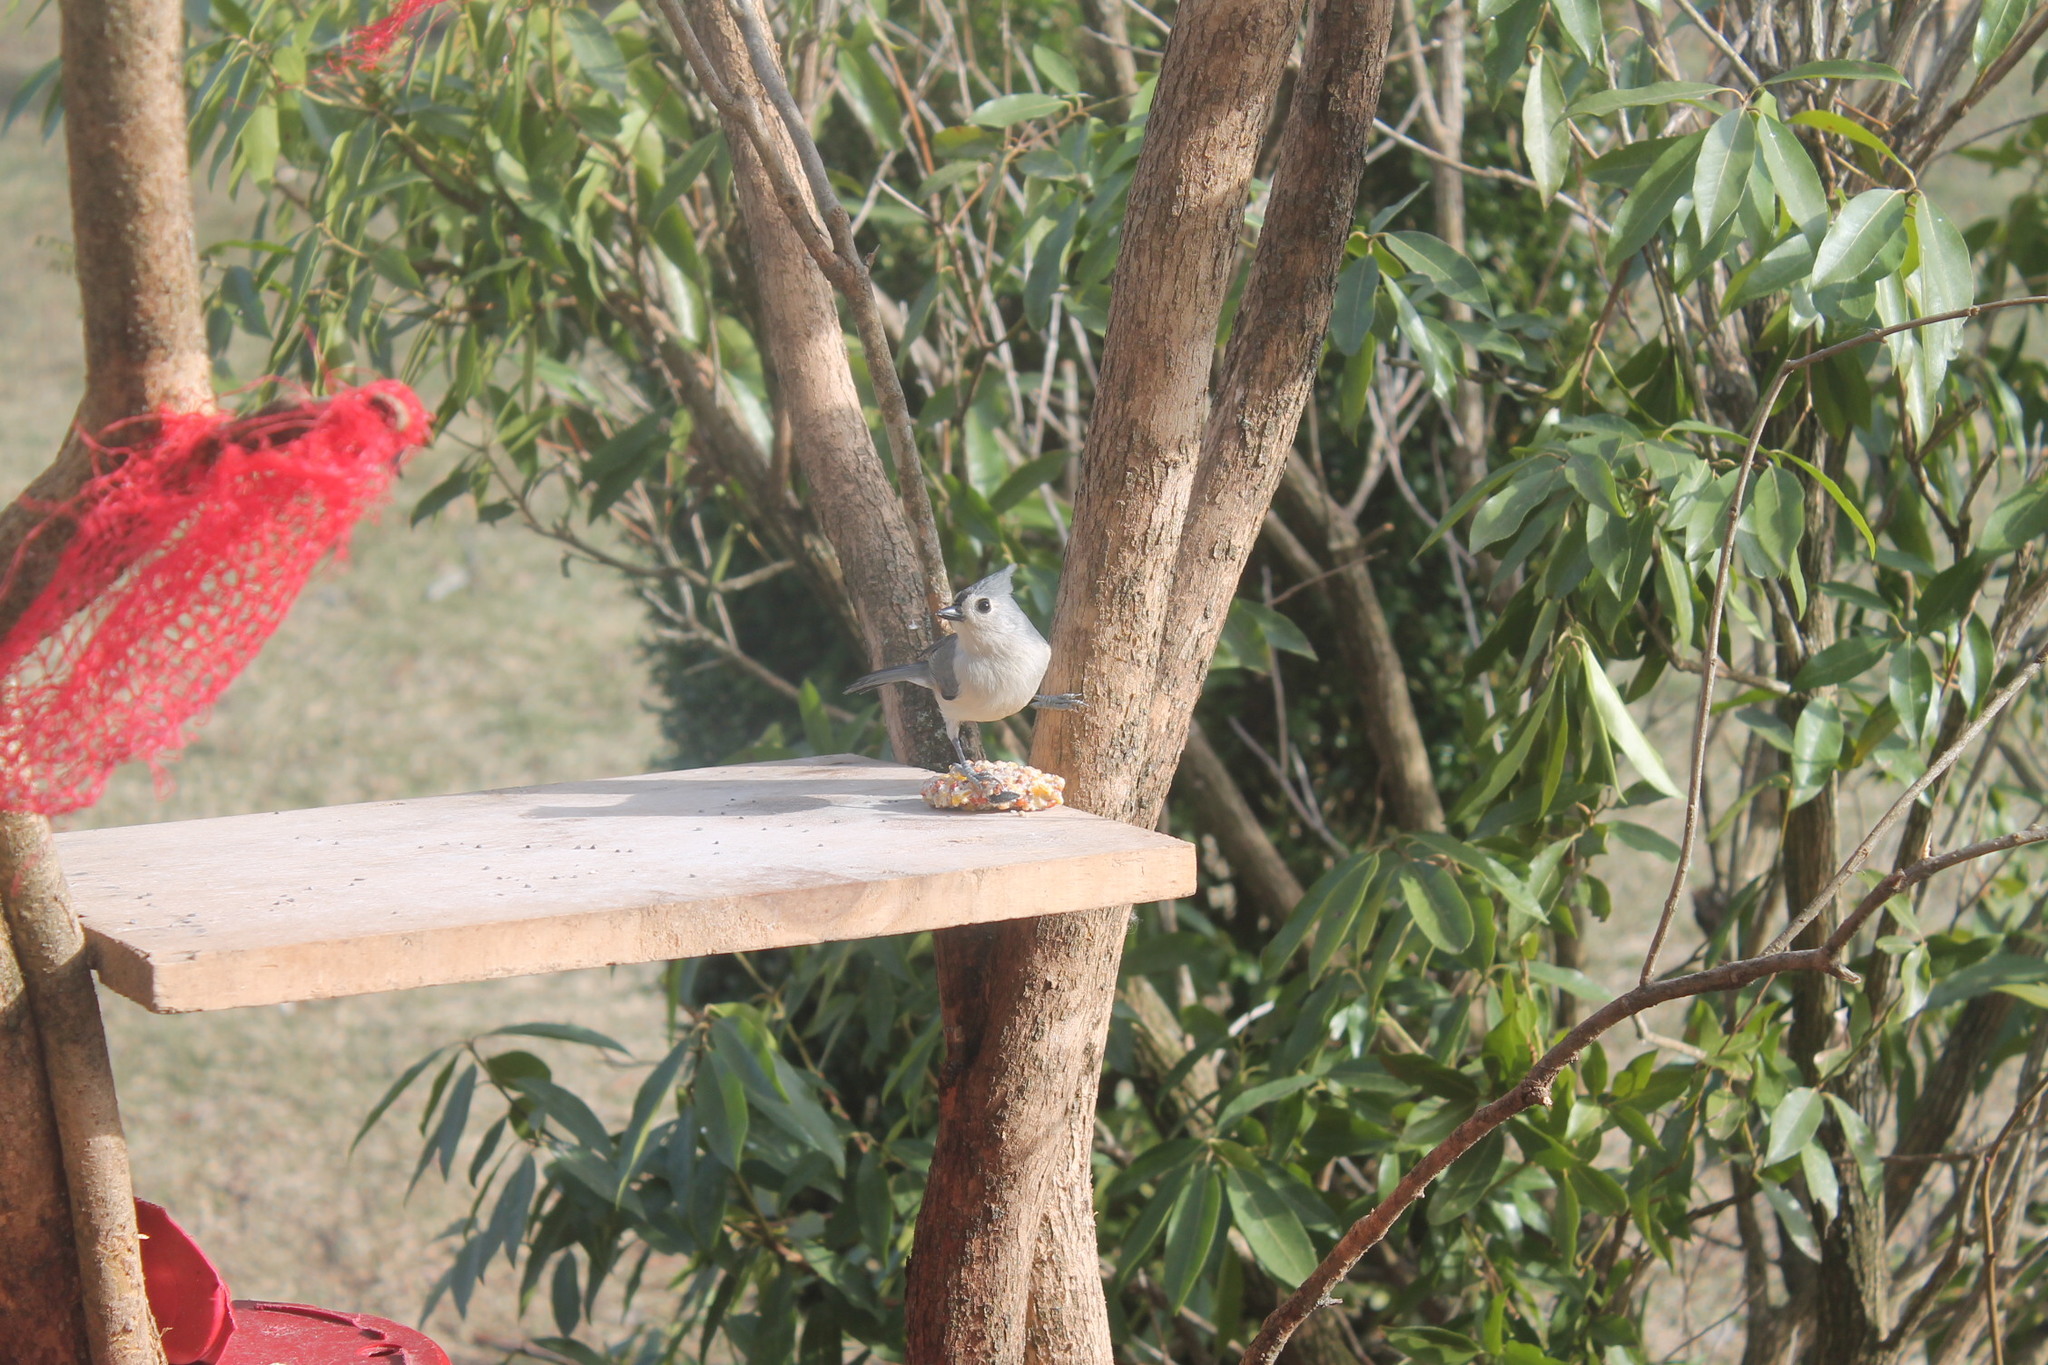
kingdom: Animalia
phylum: Chordata
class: Aves
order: Passeriformes
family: Paridae
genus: Baeolophus
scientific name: Baeolophus bicolor
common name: Tufted titmouse
